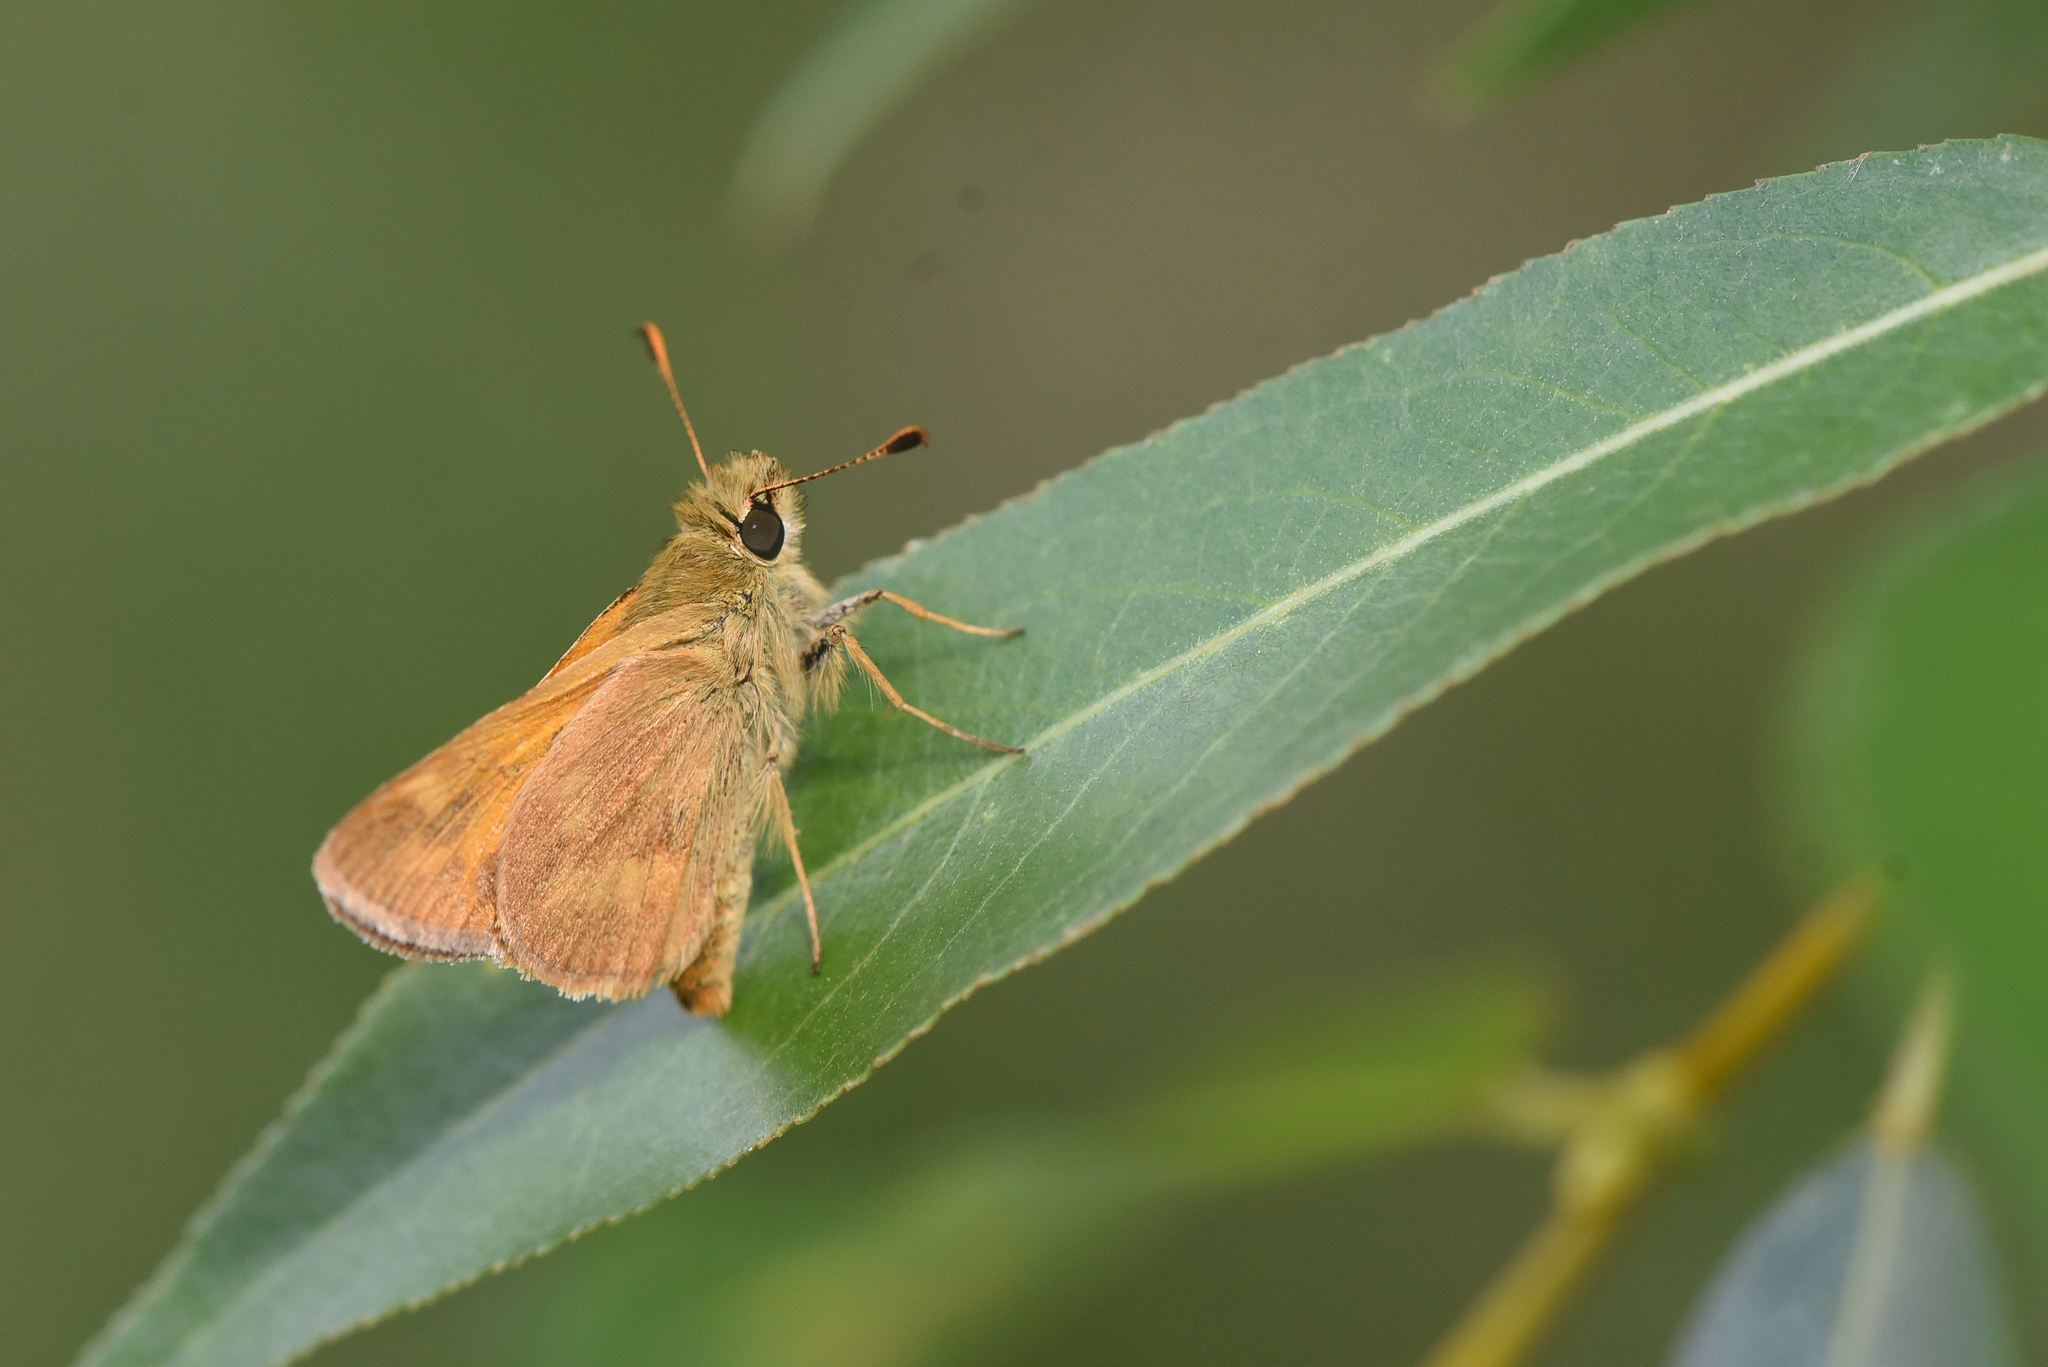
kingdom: Animalia
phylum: Arthropoda
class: Insecta
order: Lepidoptera
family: Hesperiidae
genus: Ochlodes
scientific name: Ochlodes sylvanoides
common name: Woodland skipper
